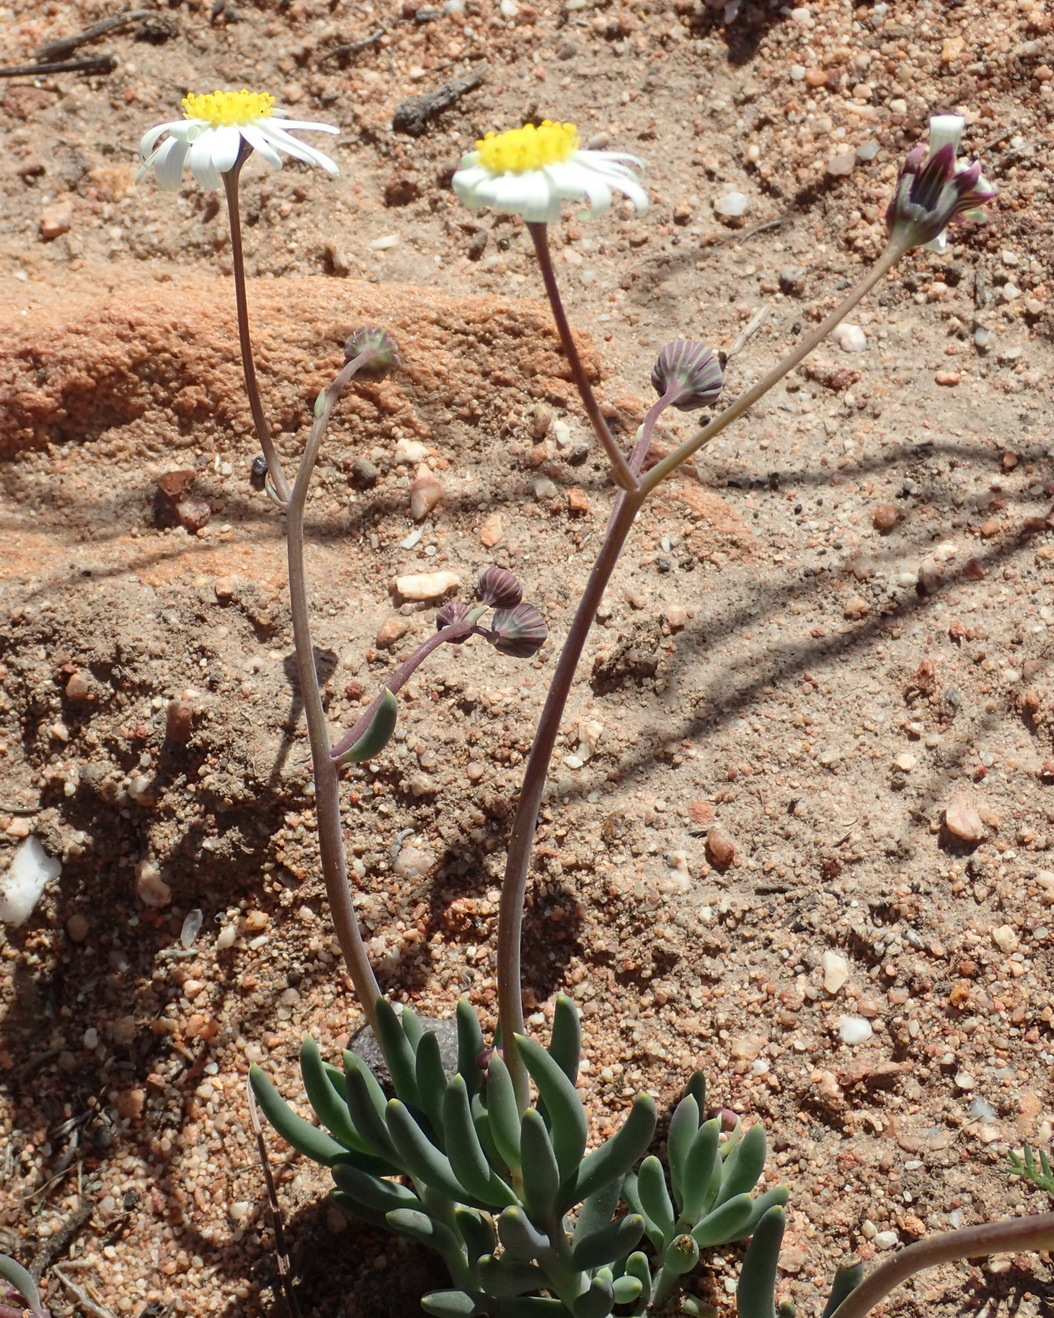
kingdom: Plantae
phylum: Tracheophyta
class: Magnoliopsida
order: Asterales
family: Asteraceae
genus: Crassothonna
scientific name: Crassothonna alba
